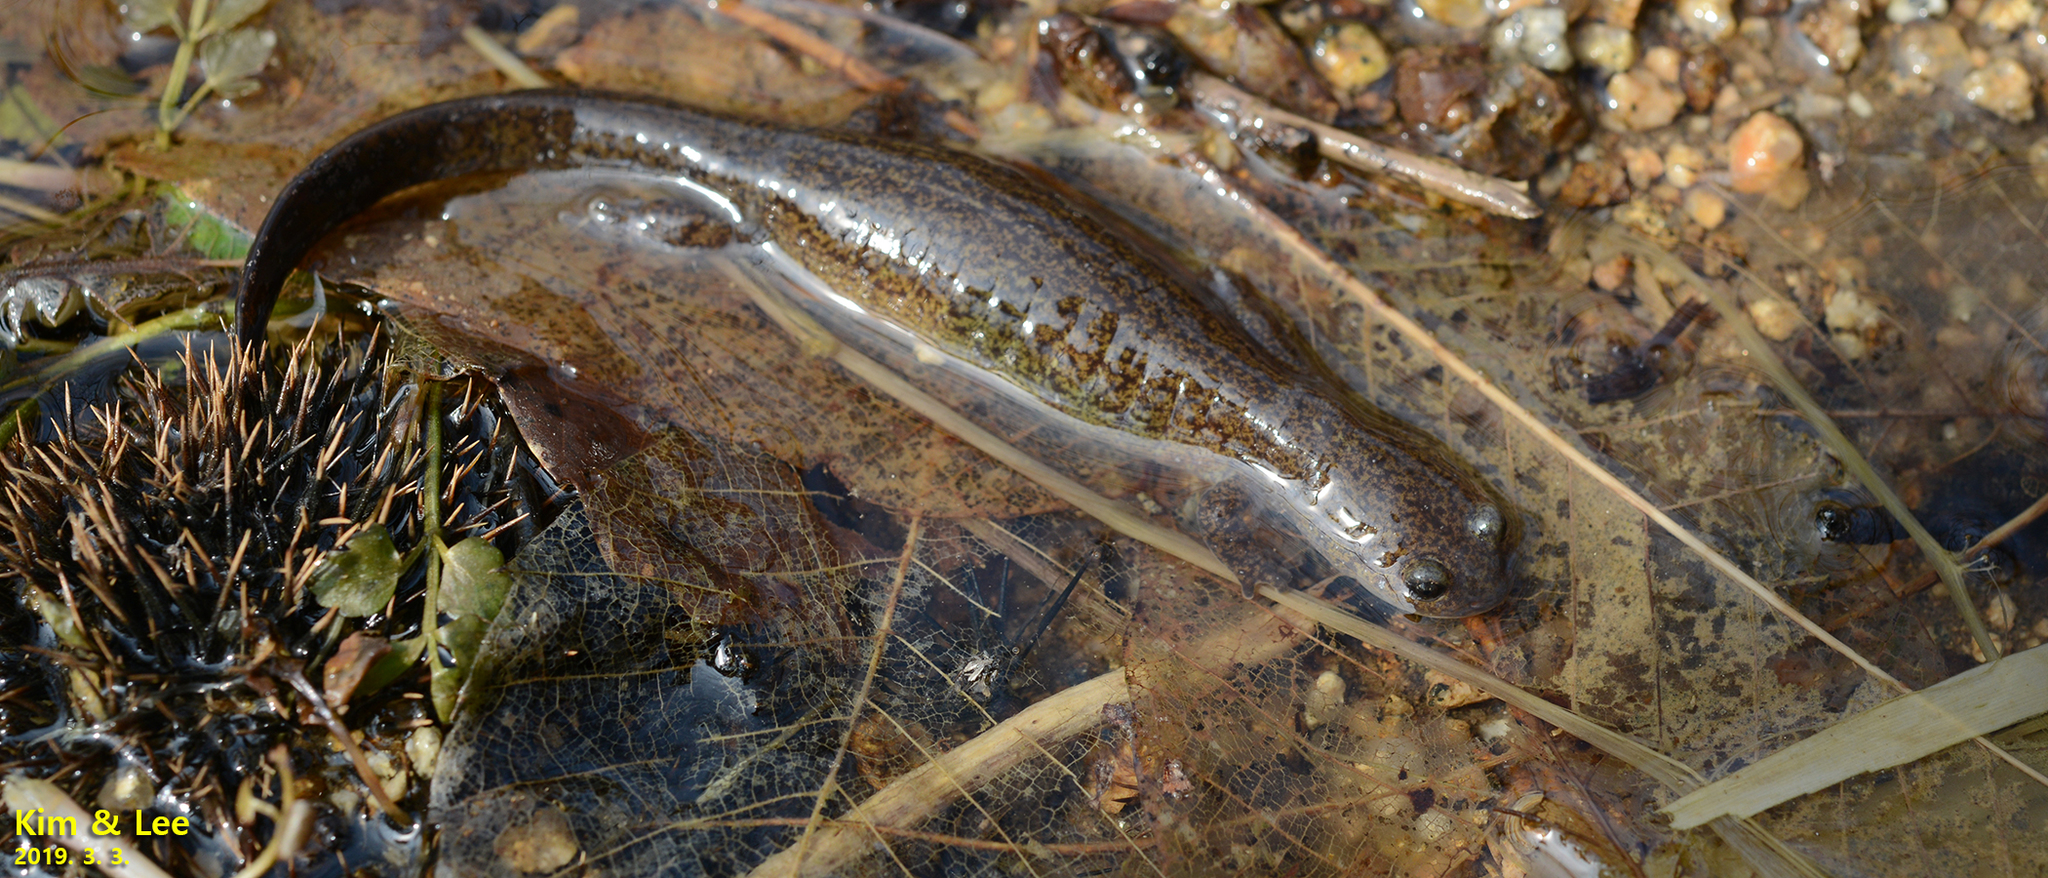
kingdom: Animalia
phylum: Chordata
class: Amphibia
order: Caudata
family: Hynobiidae
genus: Hynobius
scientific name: Hynobius unisacculus
